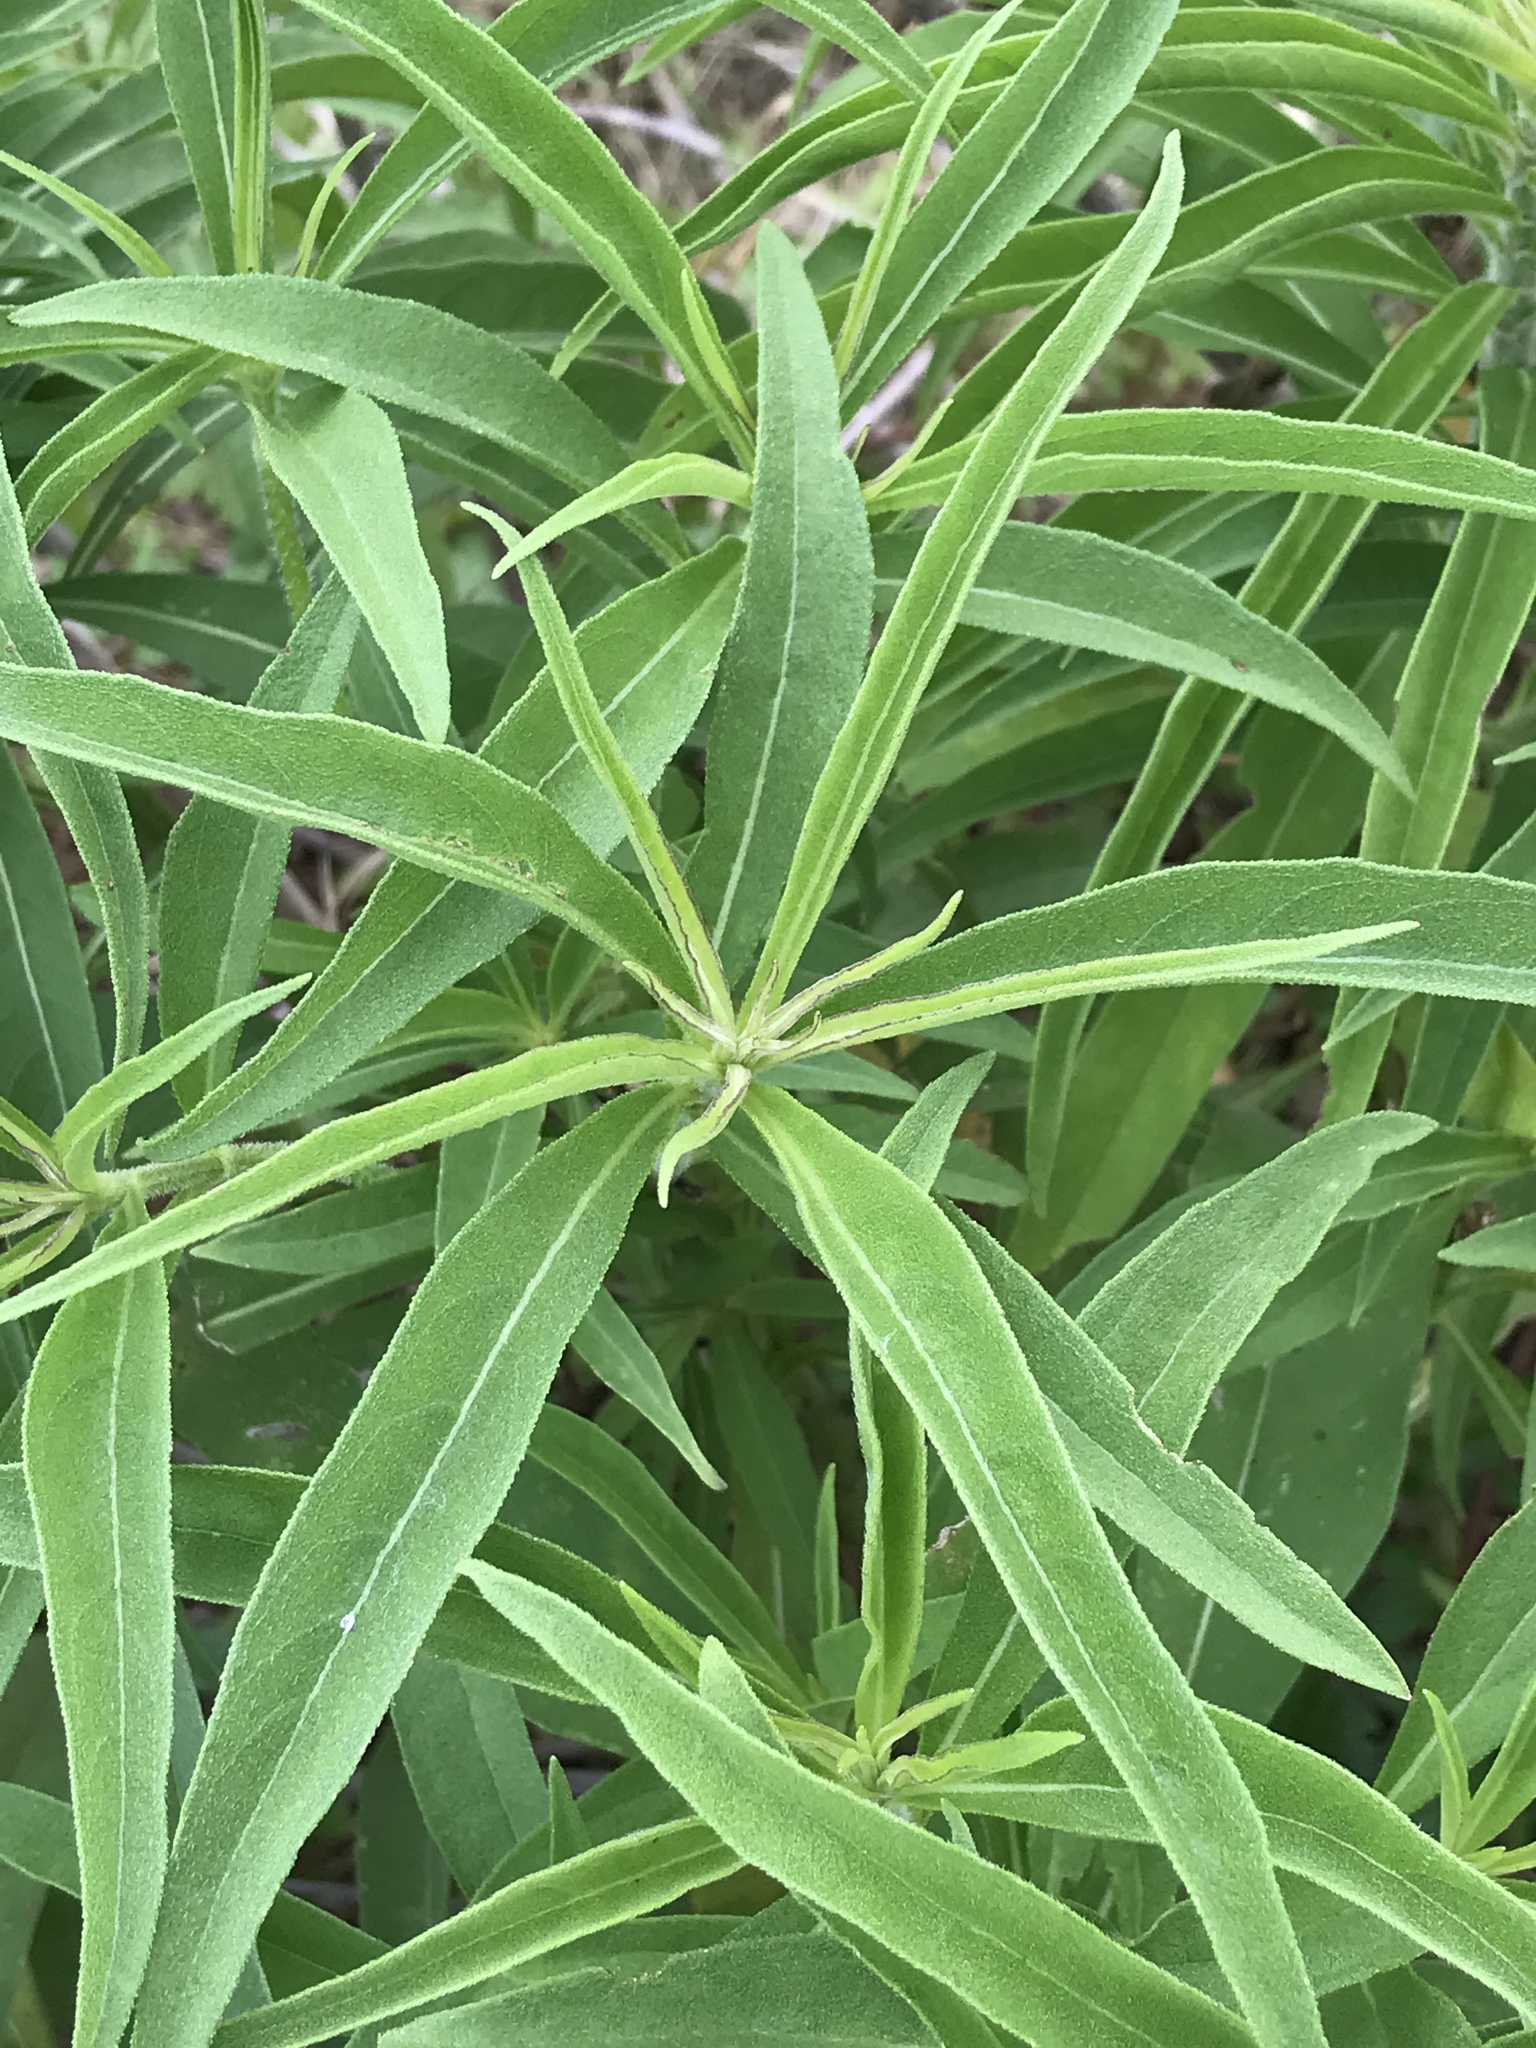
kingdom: Plantae
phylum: Tracheophyta
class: Magnoliopsida
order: Asterales
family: Asteraceae
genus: Helianthus
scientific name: Helianthus maximiliani
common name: Maximilian's sunflower
